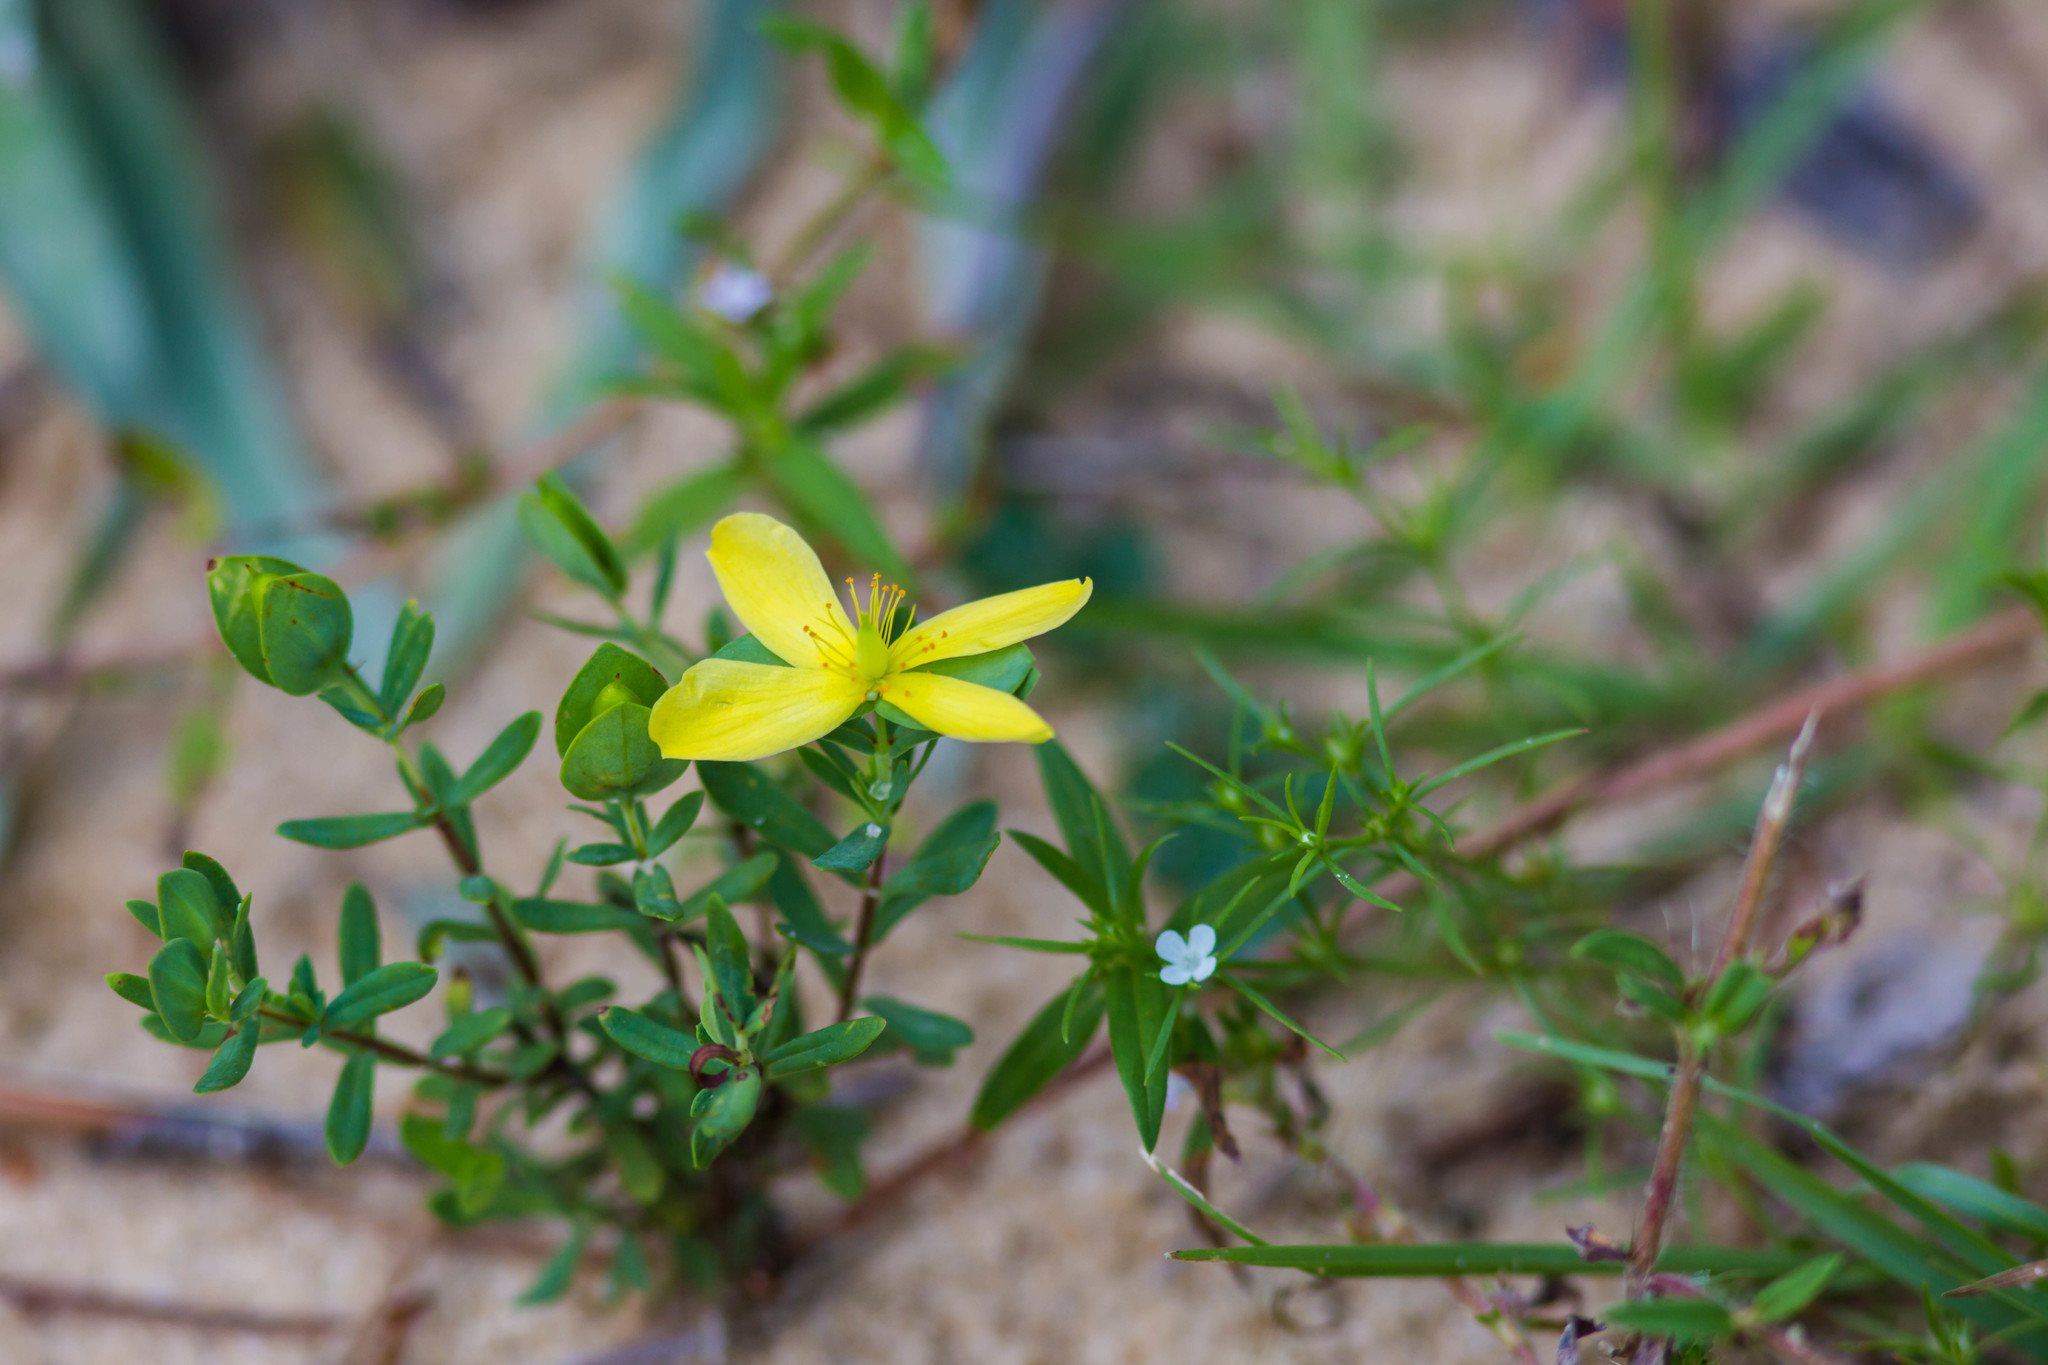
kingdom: Plantae
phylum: Tracheophyta
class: Magnoliopsida
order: Malpighiales
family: Hypericaceae
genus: Hypericum
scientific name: Hypericum hypericoides
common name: St. andrew's cross
